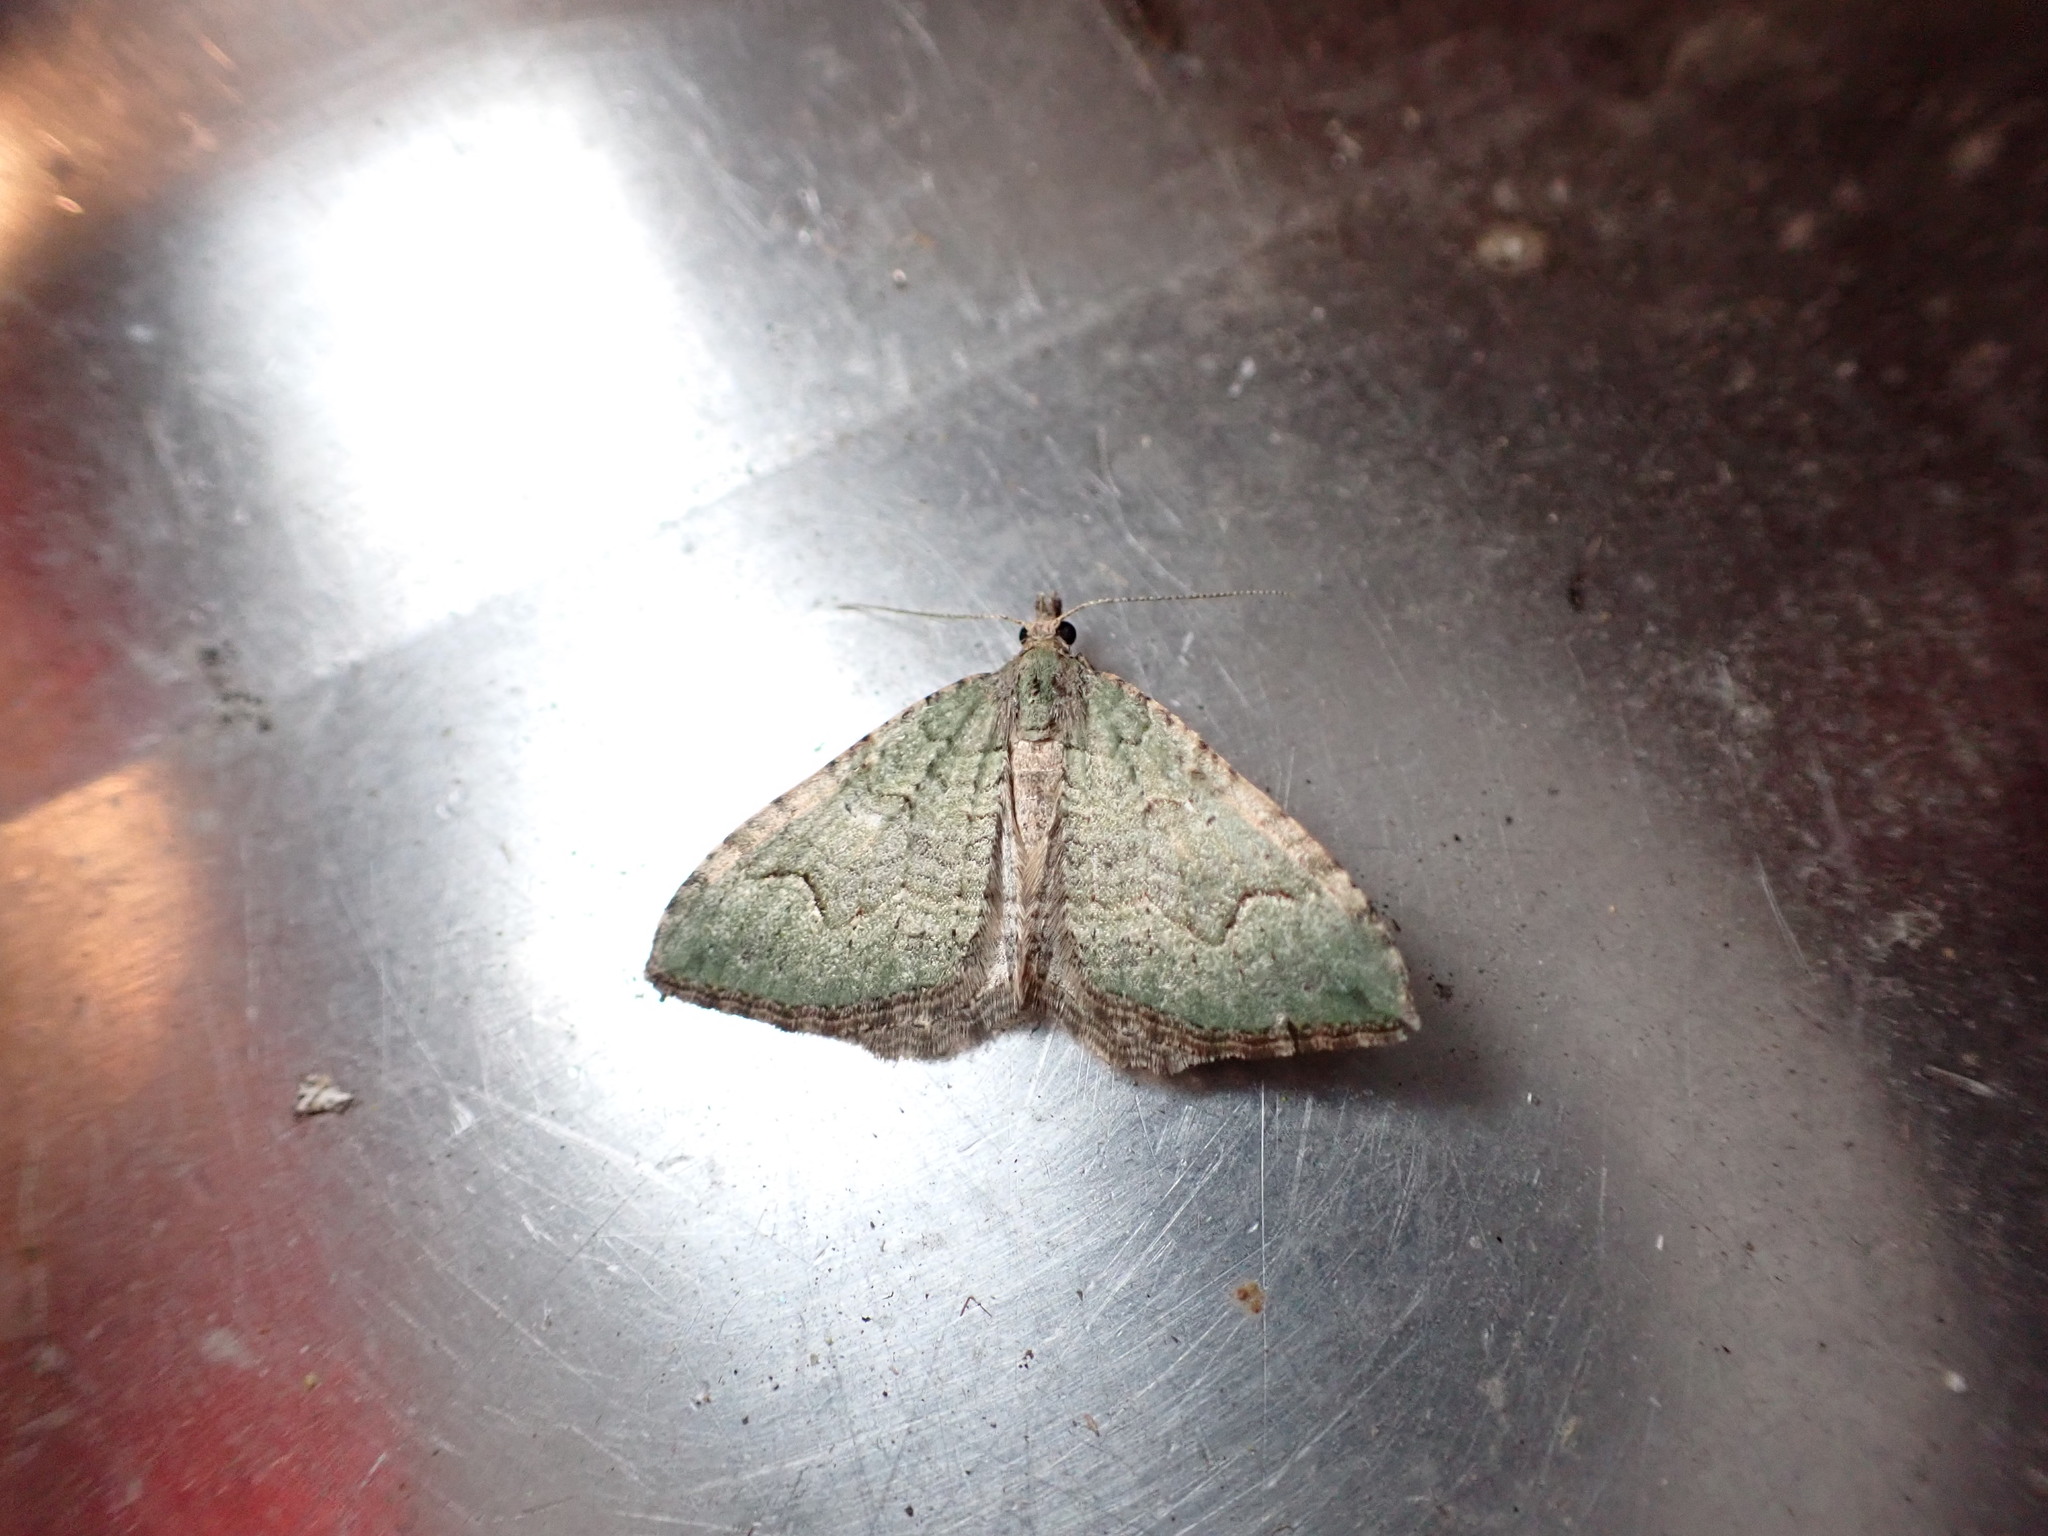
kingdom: Animalia
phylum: Arthropoda
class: Insecta
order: Lepidoptera
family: Geometridae
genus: Epyaxa
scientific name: Epyaxa rosearia
